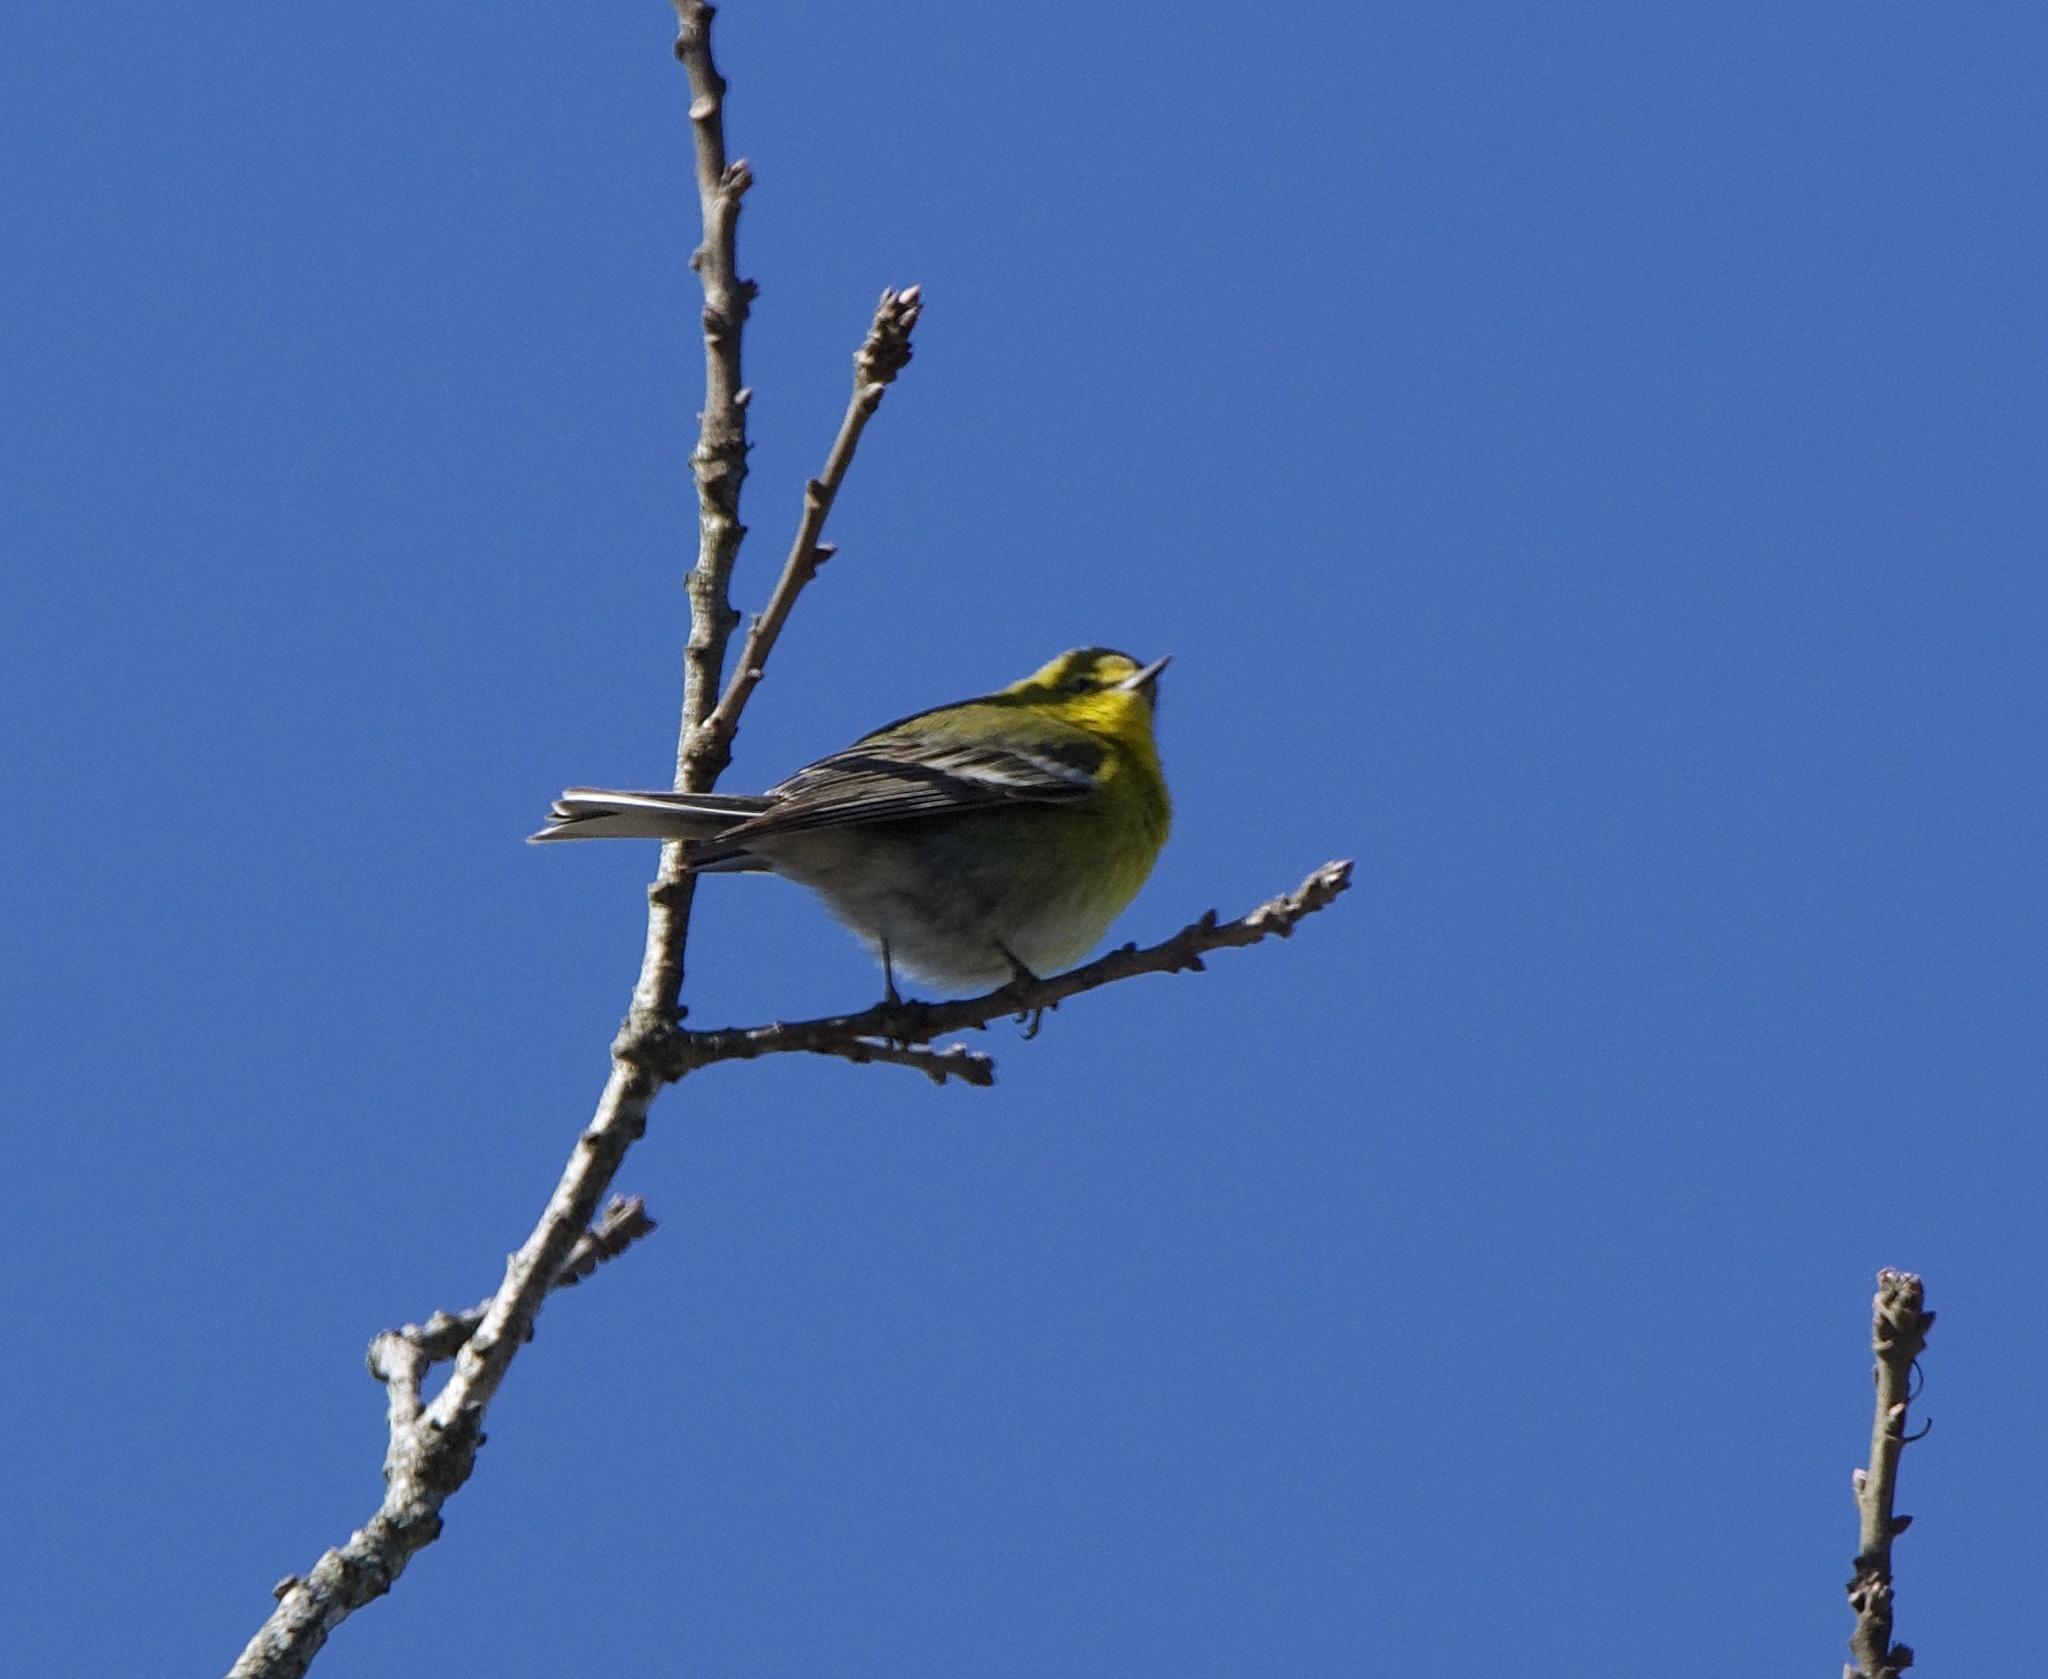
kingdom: Animalia
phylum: Chordata
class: Aves
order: Passeriformes
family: Parulidae
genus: Setophaga
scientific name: Setophaga pinus
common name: Pine warbler
